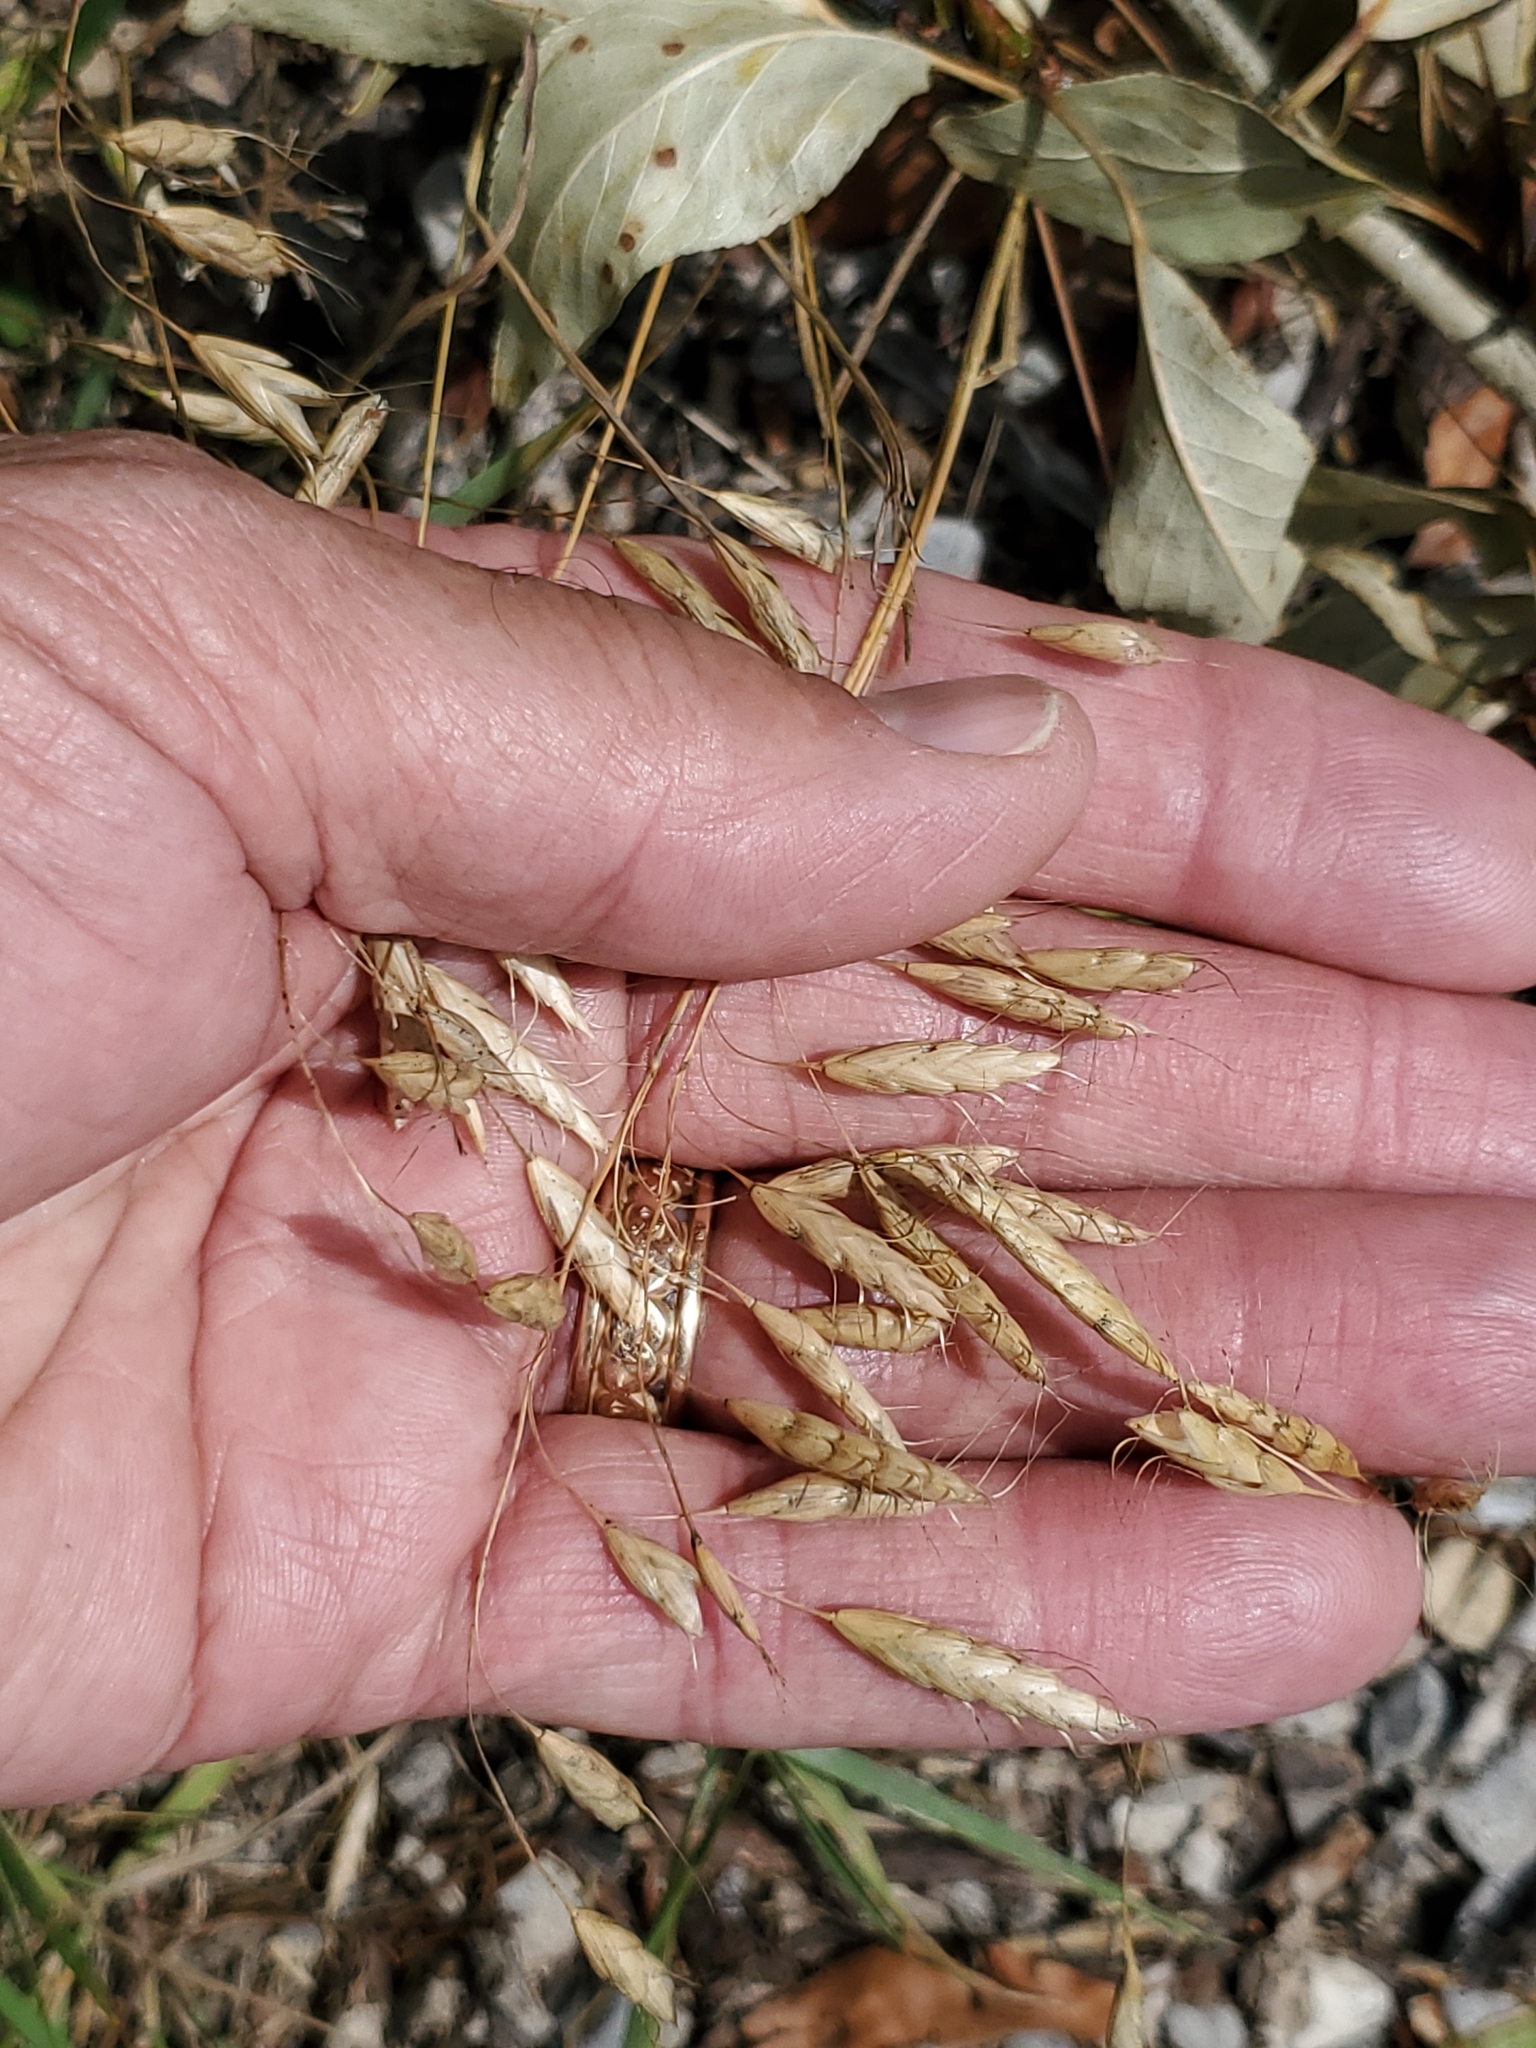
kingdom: Plantae
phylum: Tracheophyta
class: Liliopsida
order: Poales
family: Poaceae
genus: Bromus
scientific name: Bromus japonicus
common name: Japanese brome
